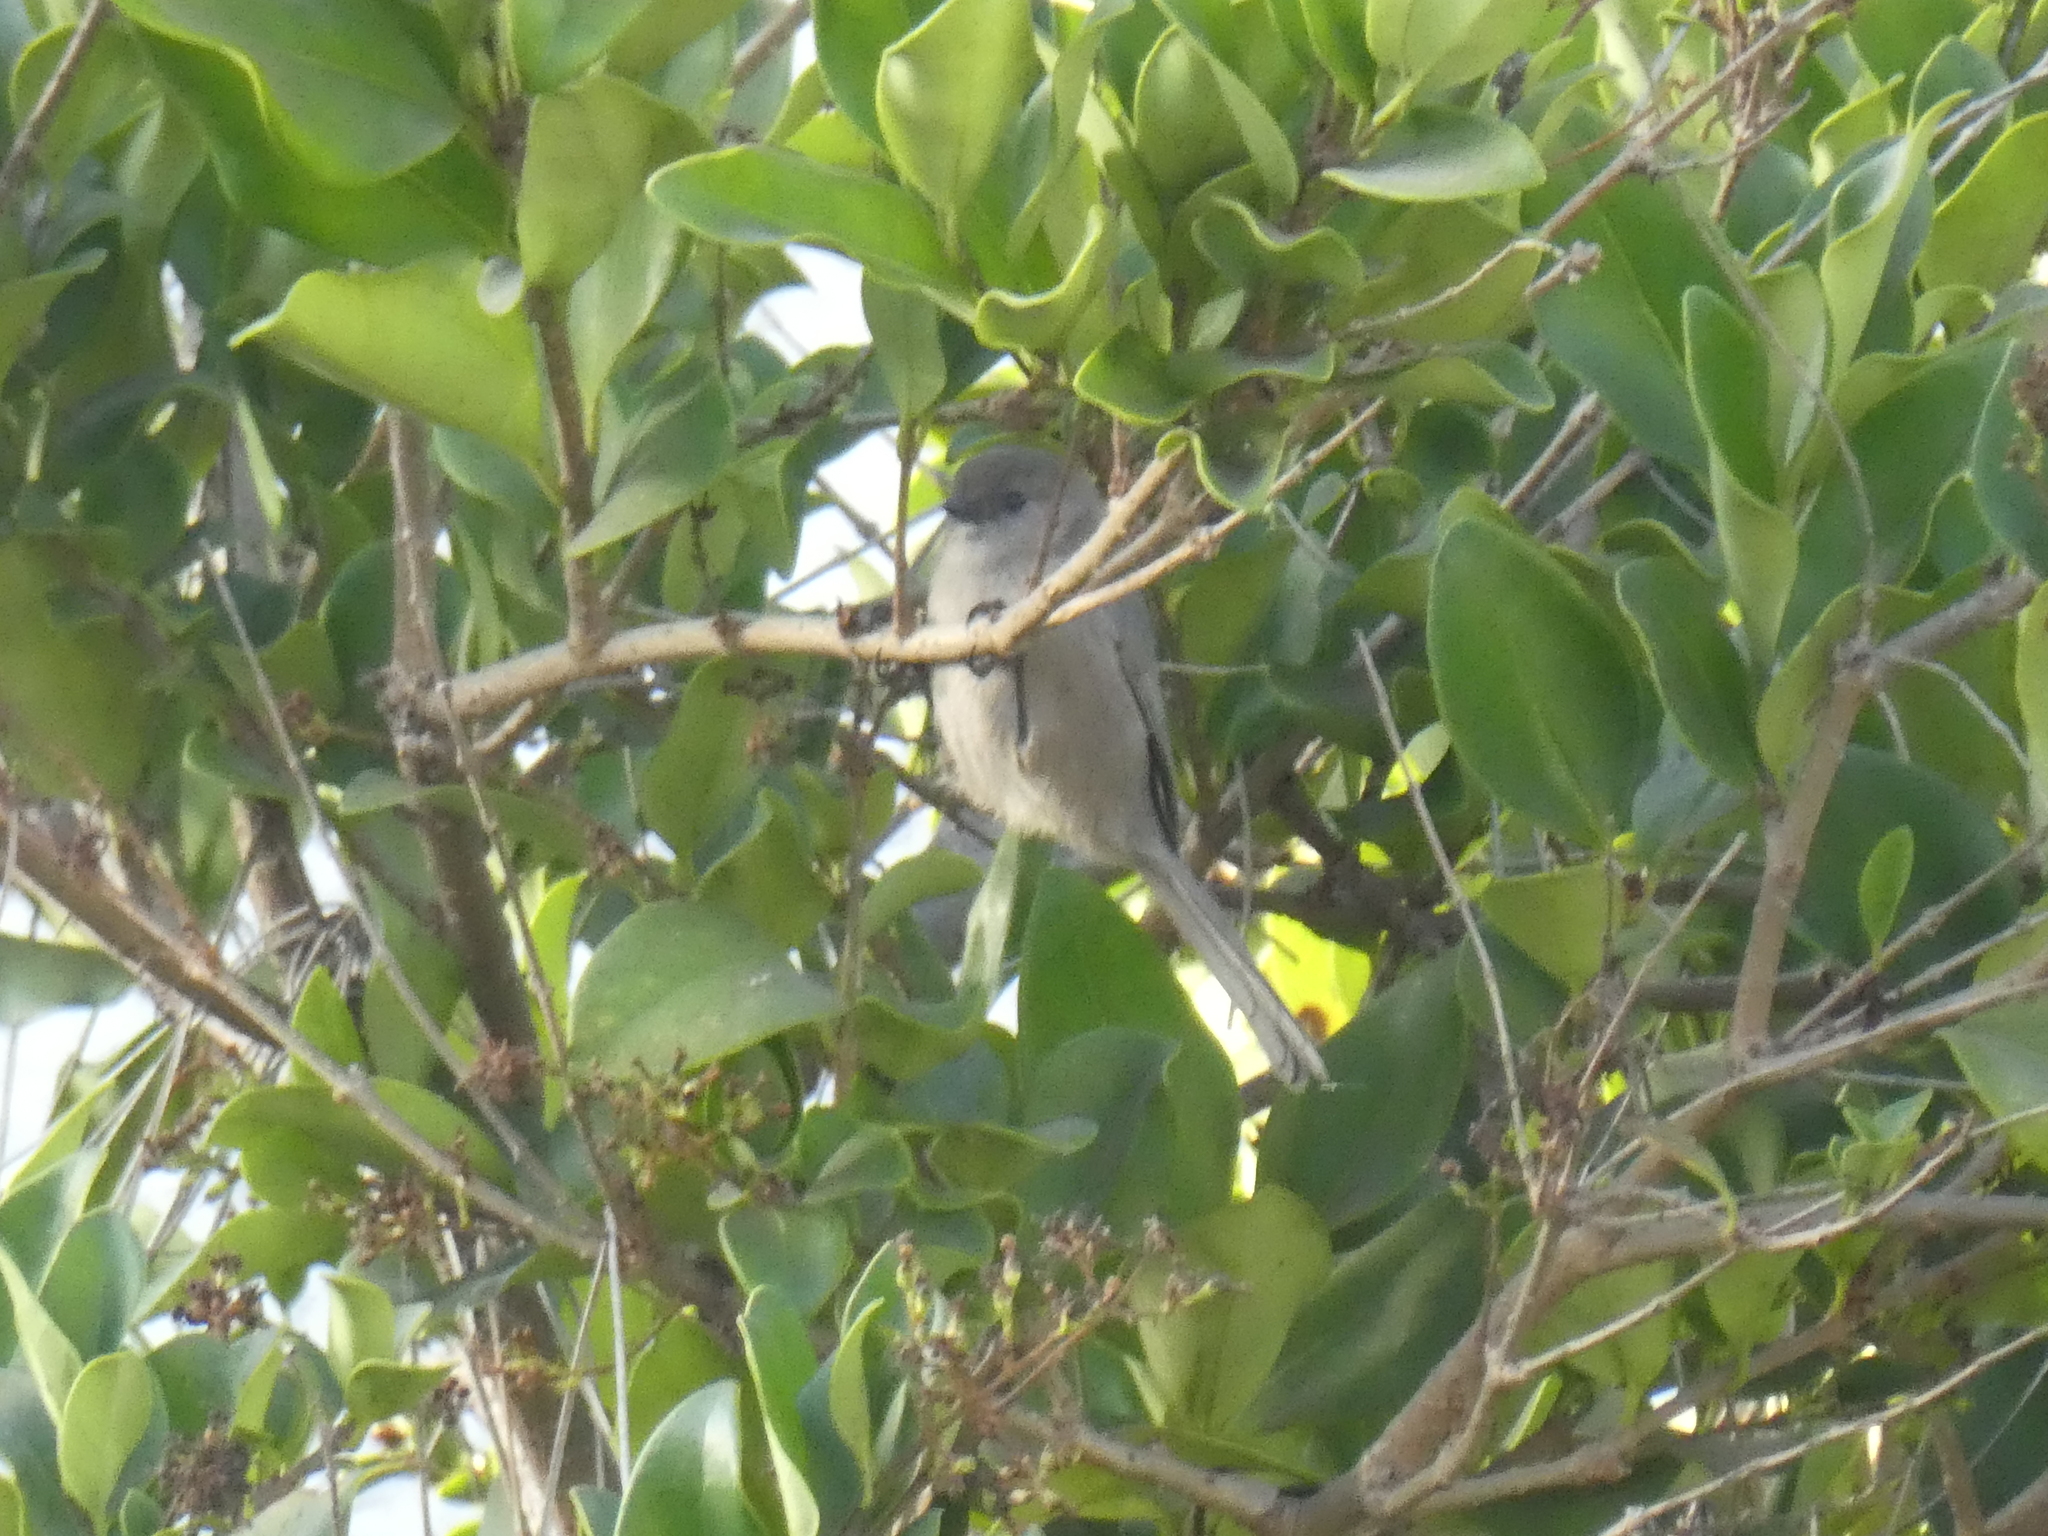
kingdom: Animalia
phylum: Chordata
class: Aves
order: Passeriformes
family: Aegithalidae
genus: Psaltriparus
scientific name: Psaltriparus minimus
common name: American bushtit
